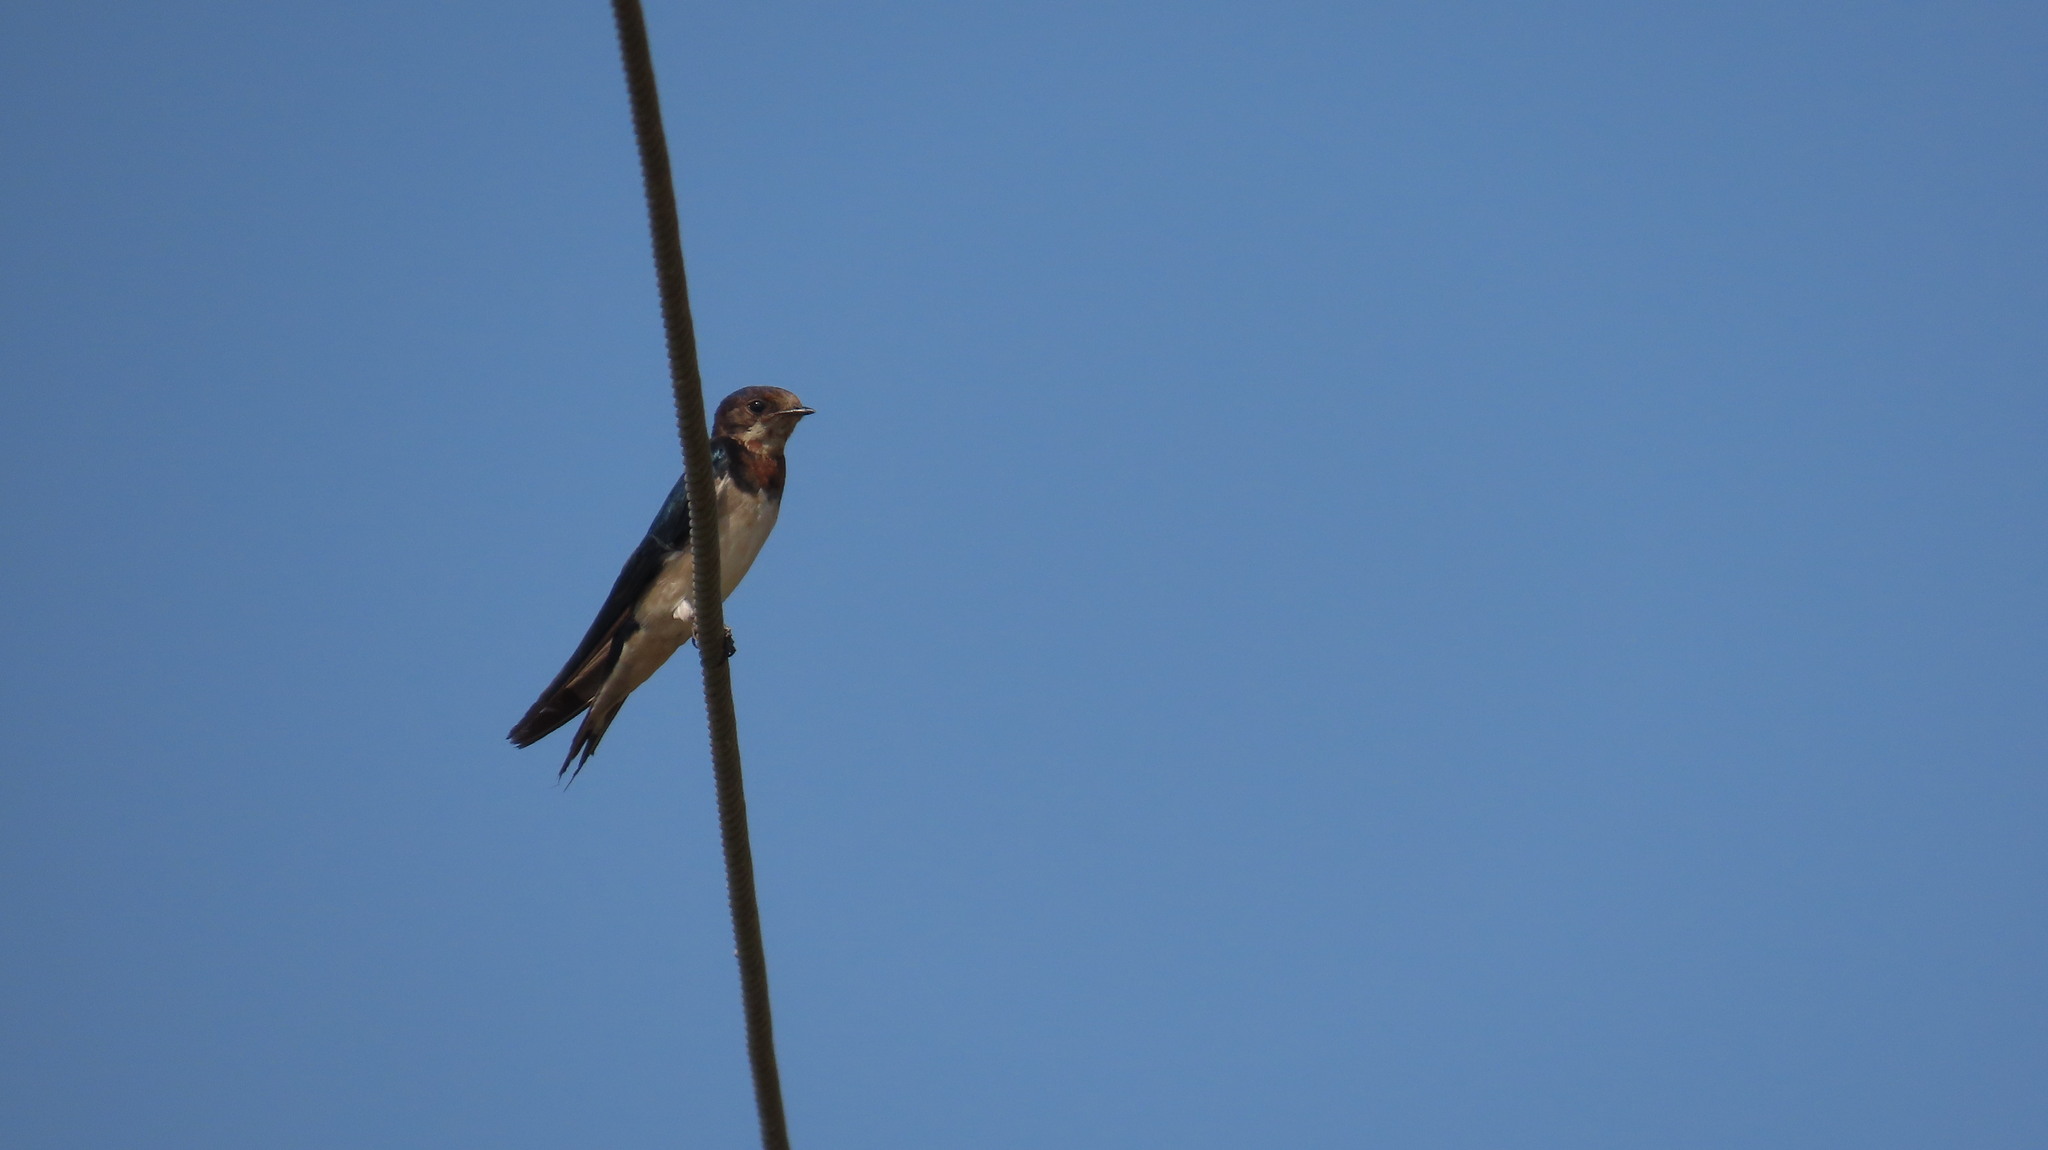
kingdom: Animalia
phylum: Chordata
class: Aves
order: Passeriformes
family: Hirundinidae
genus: Hirundo
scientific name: Hirundo rustica
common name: Barn swallow
